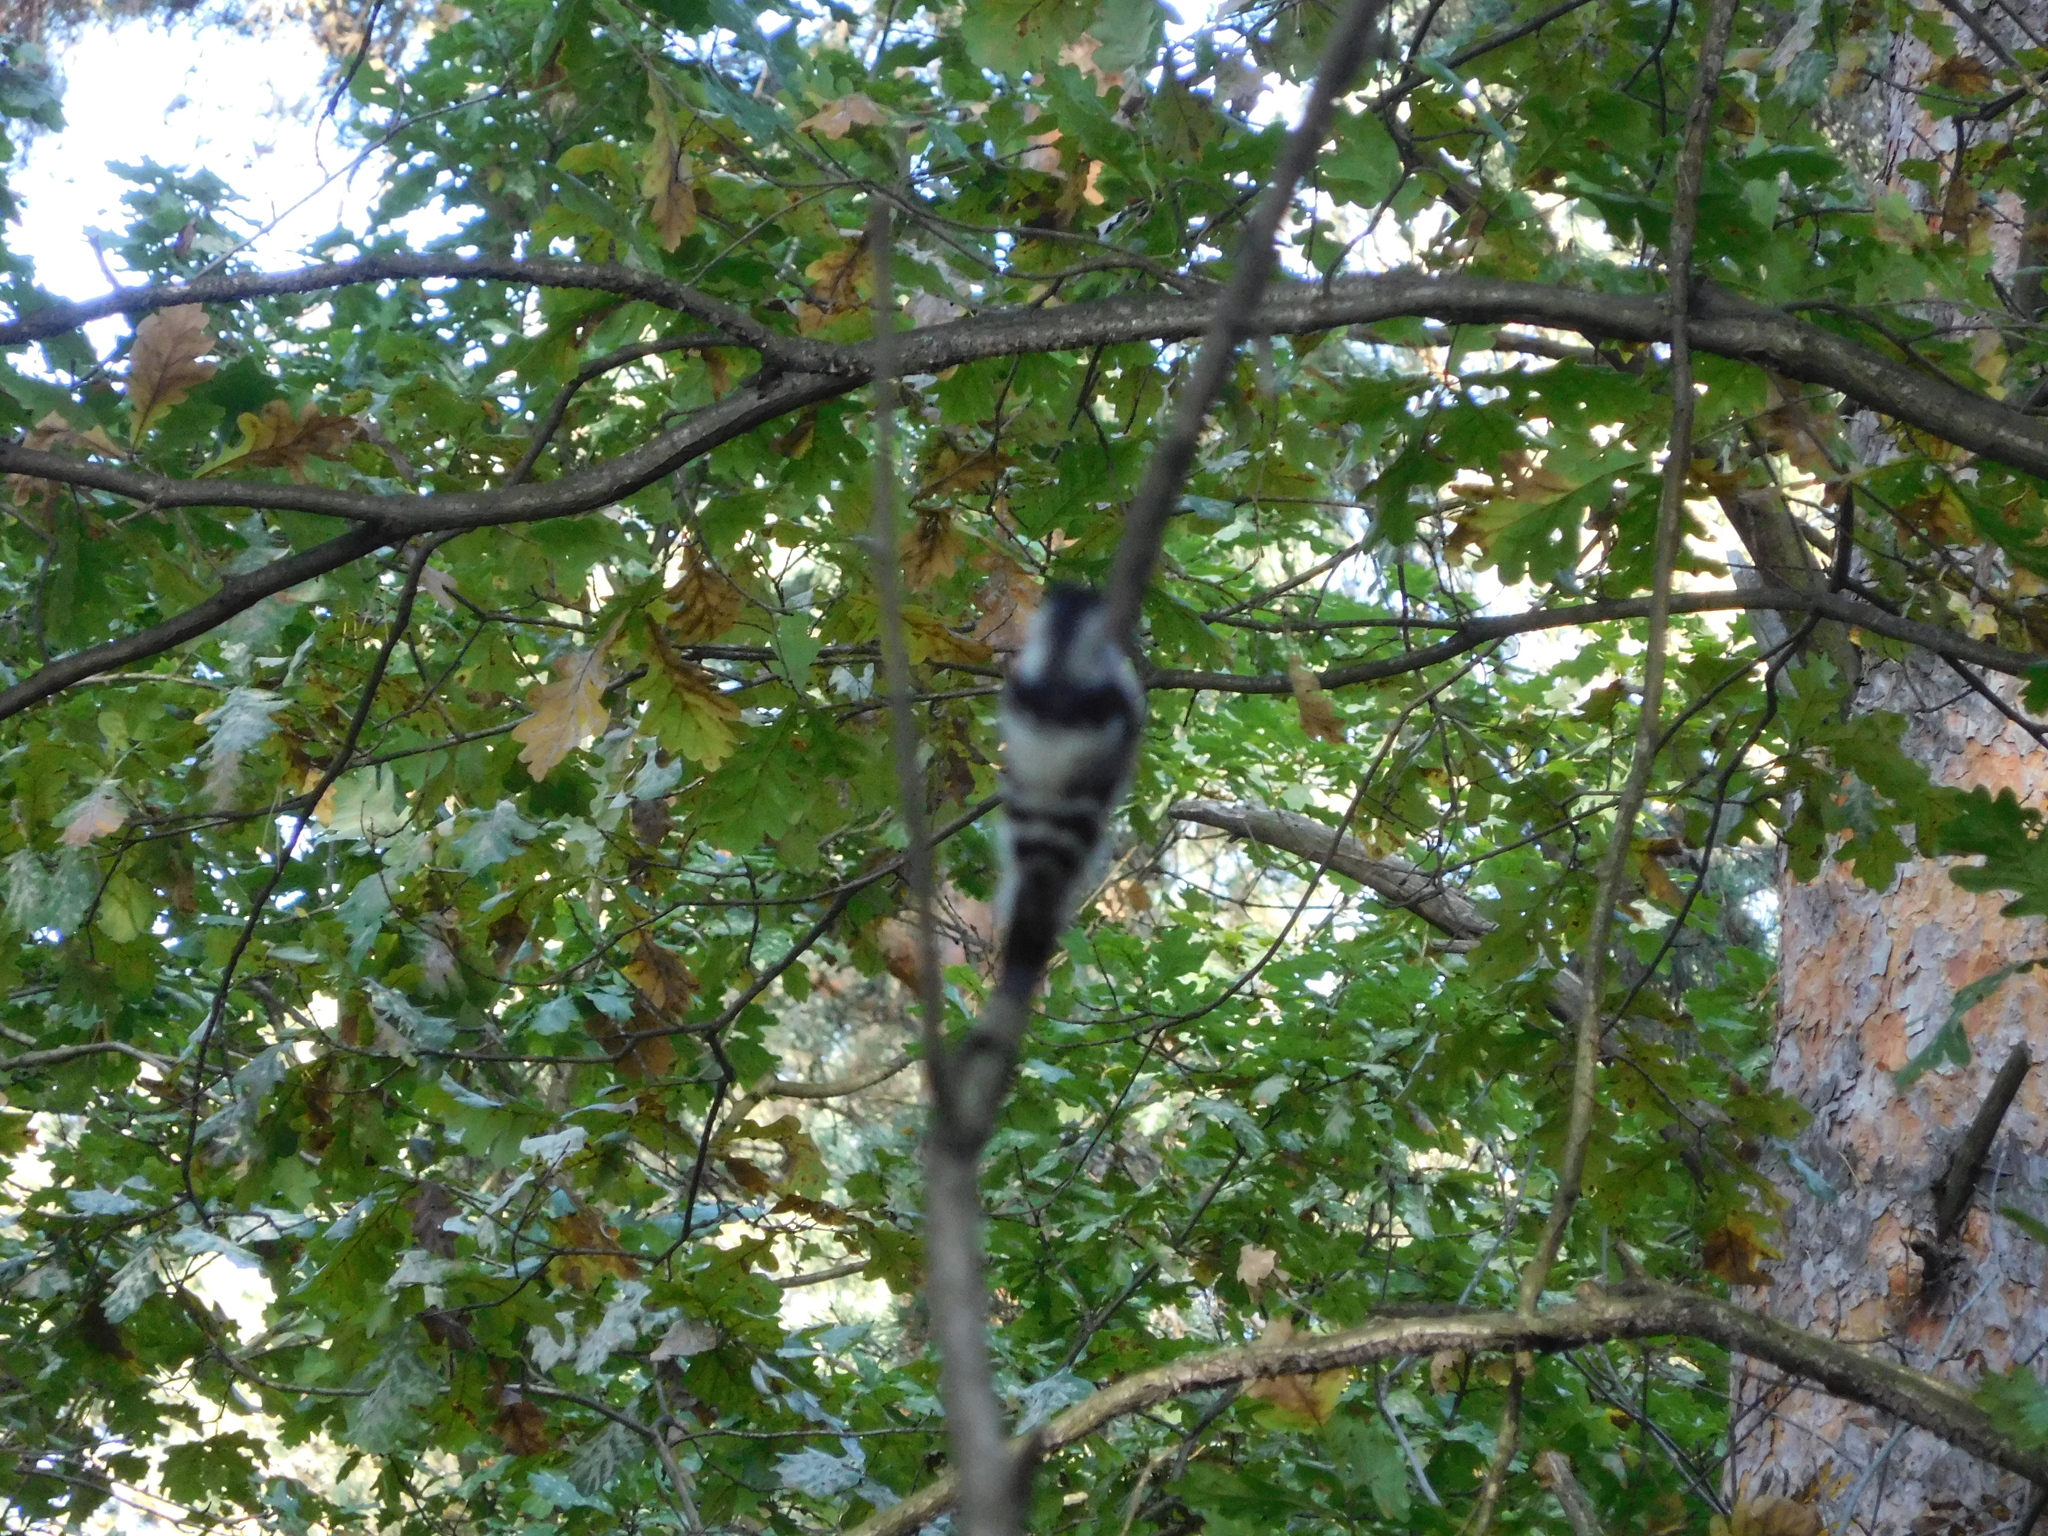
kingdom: Animalia
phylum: Chordata
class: Aves
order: Piciformes
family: Picidae
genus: Dryobates
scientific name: Dryobates minor
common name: Lesser spotted woodpecker
